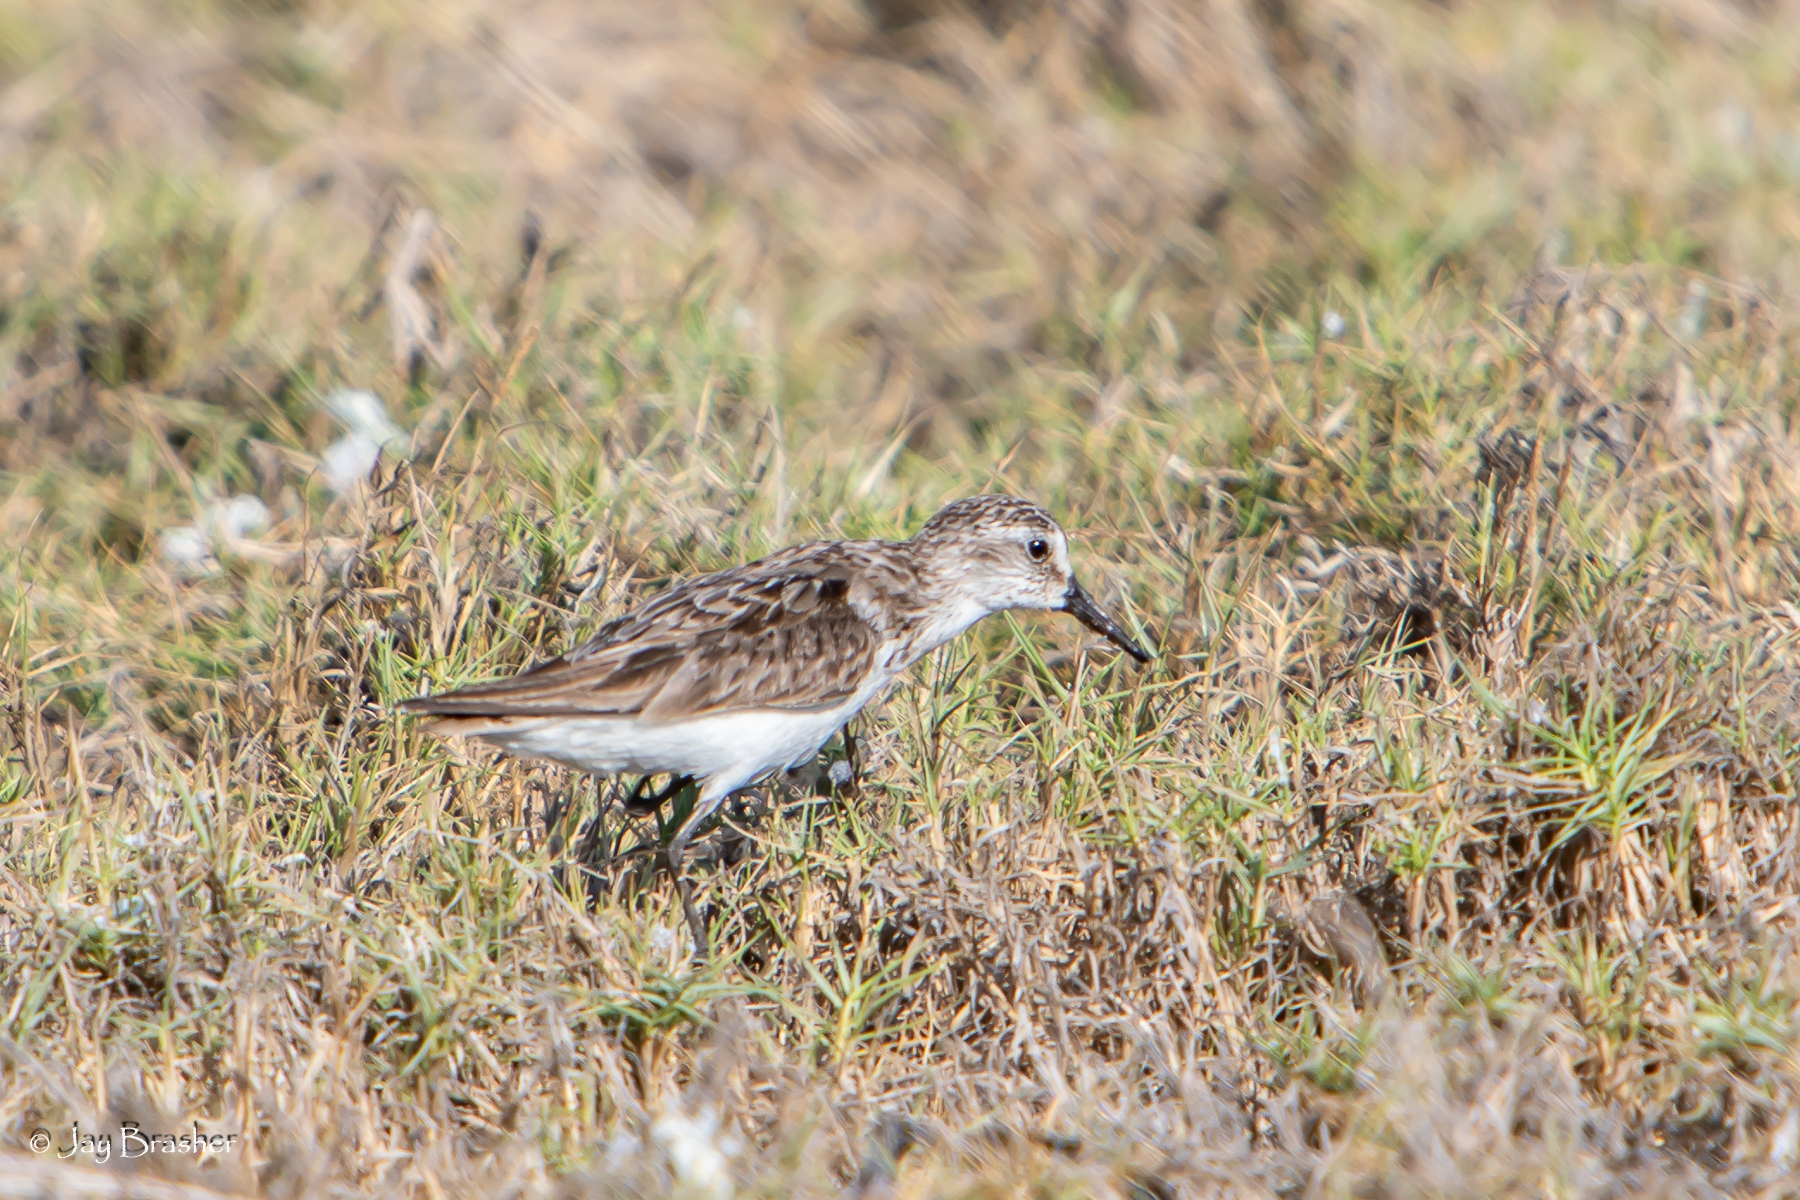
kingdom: Animalia
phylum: Chordata
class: Aves
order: Charadriiformes
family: Scolopacidae
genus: Calidris
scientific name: Calidris pusilla
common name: Semipalmated sandpiper
